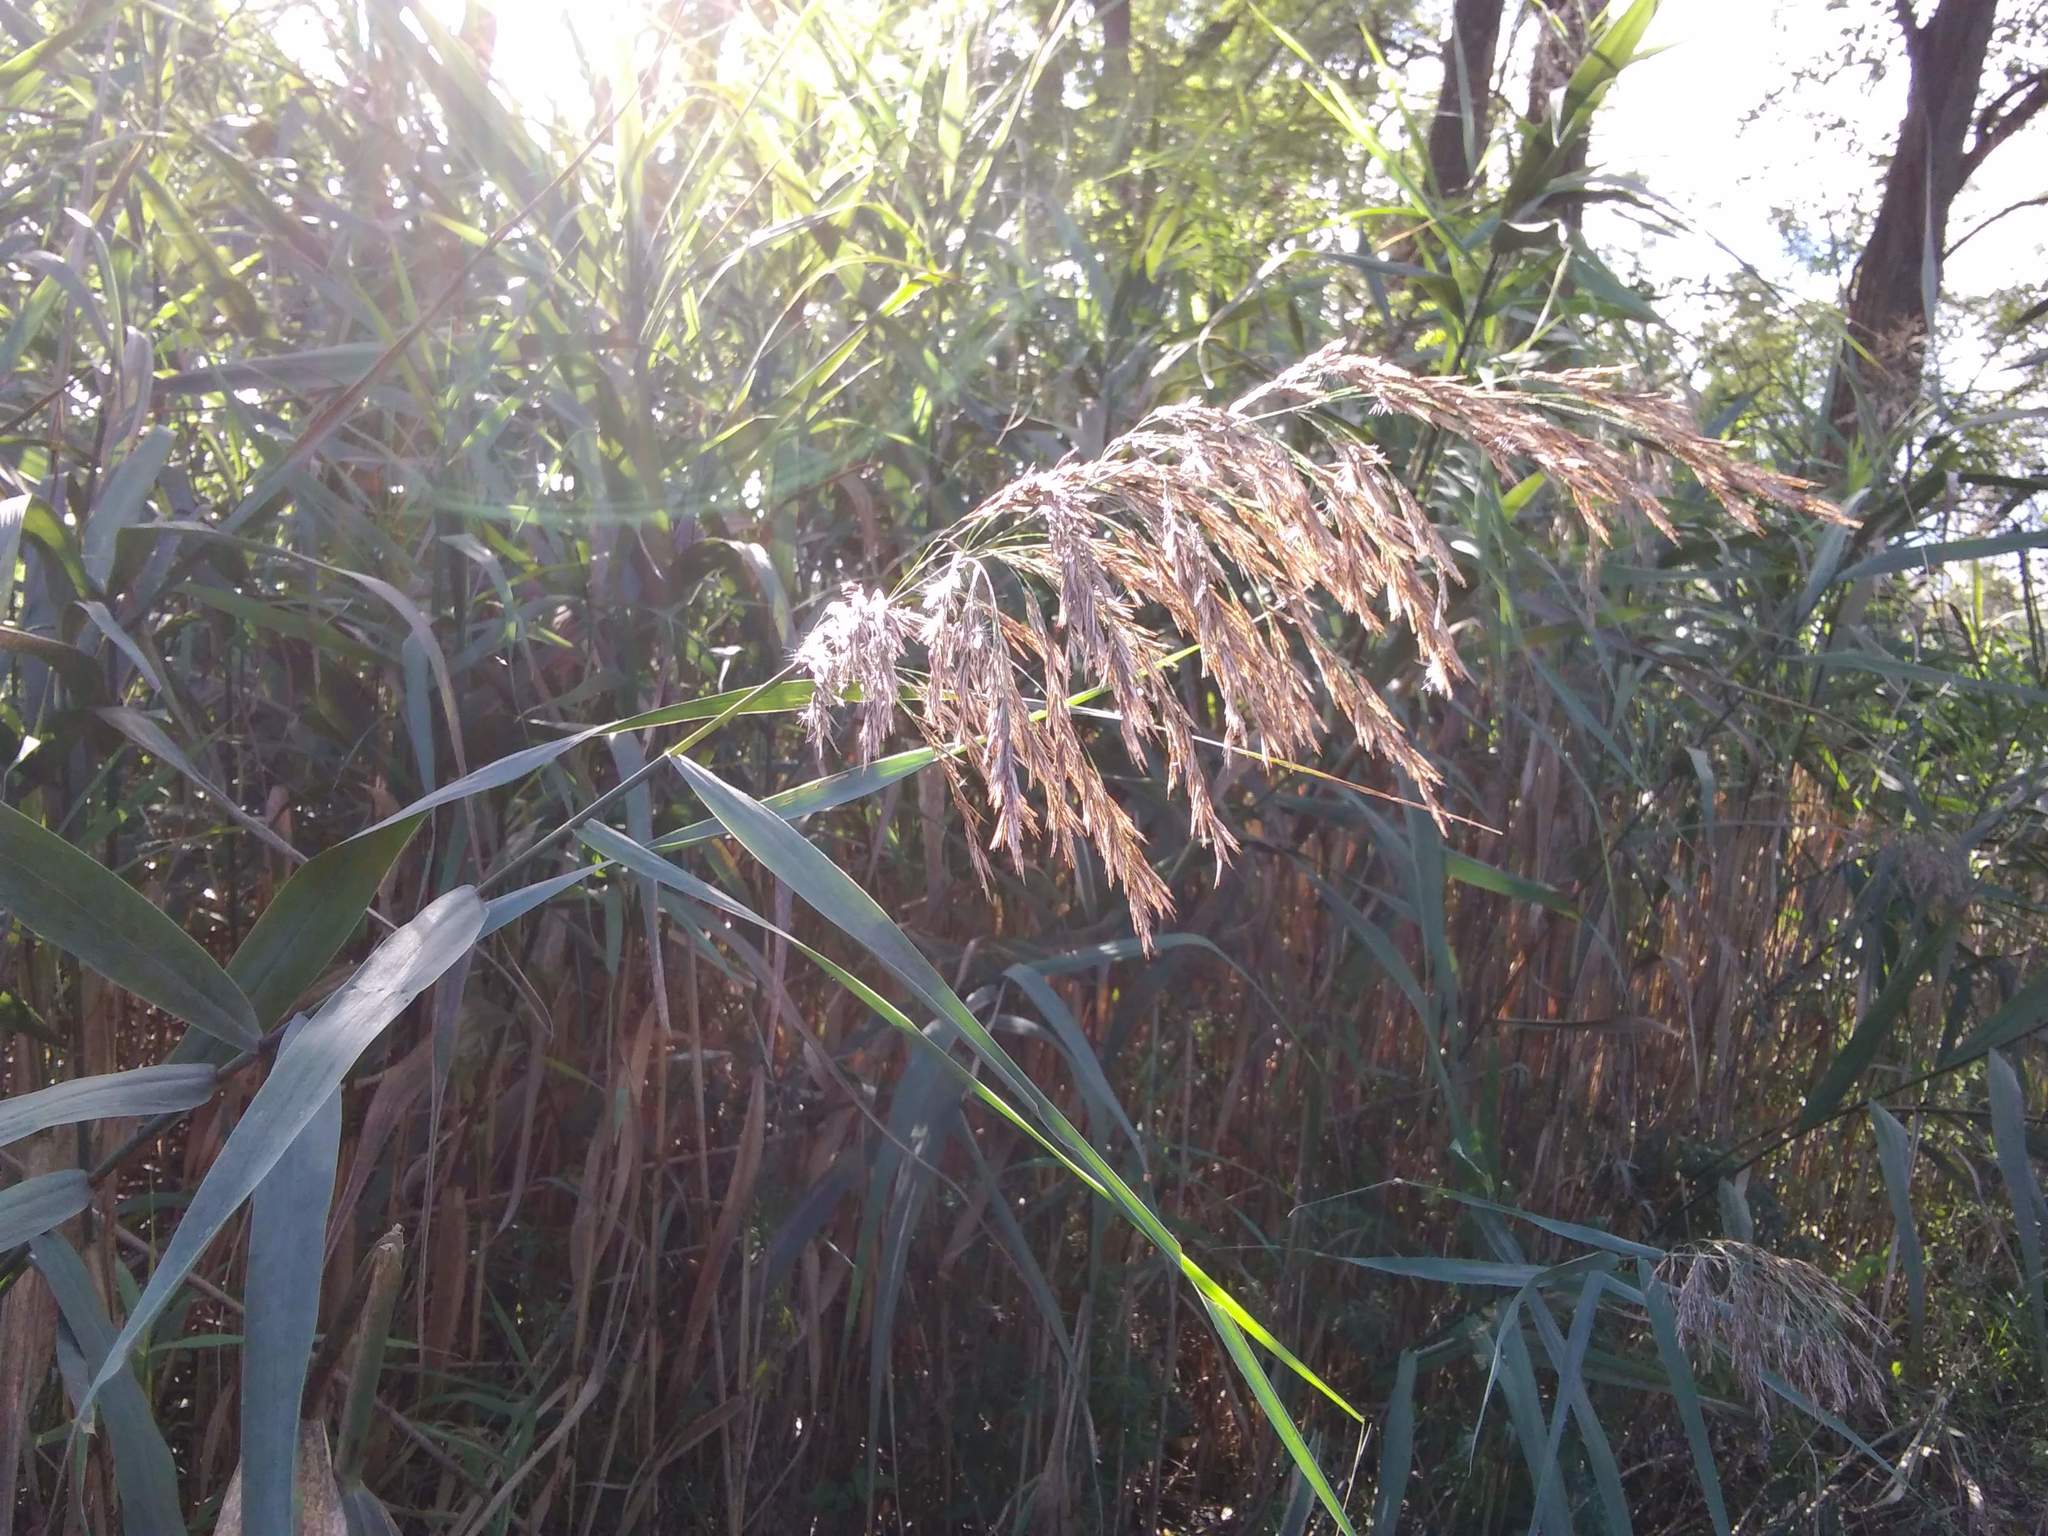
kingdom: Plantae
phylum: Tracheophyta
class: Liliopsida
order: Poales
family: Poaceae
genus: Phragmites
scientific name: Phragmites australis
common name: Common reed
